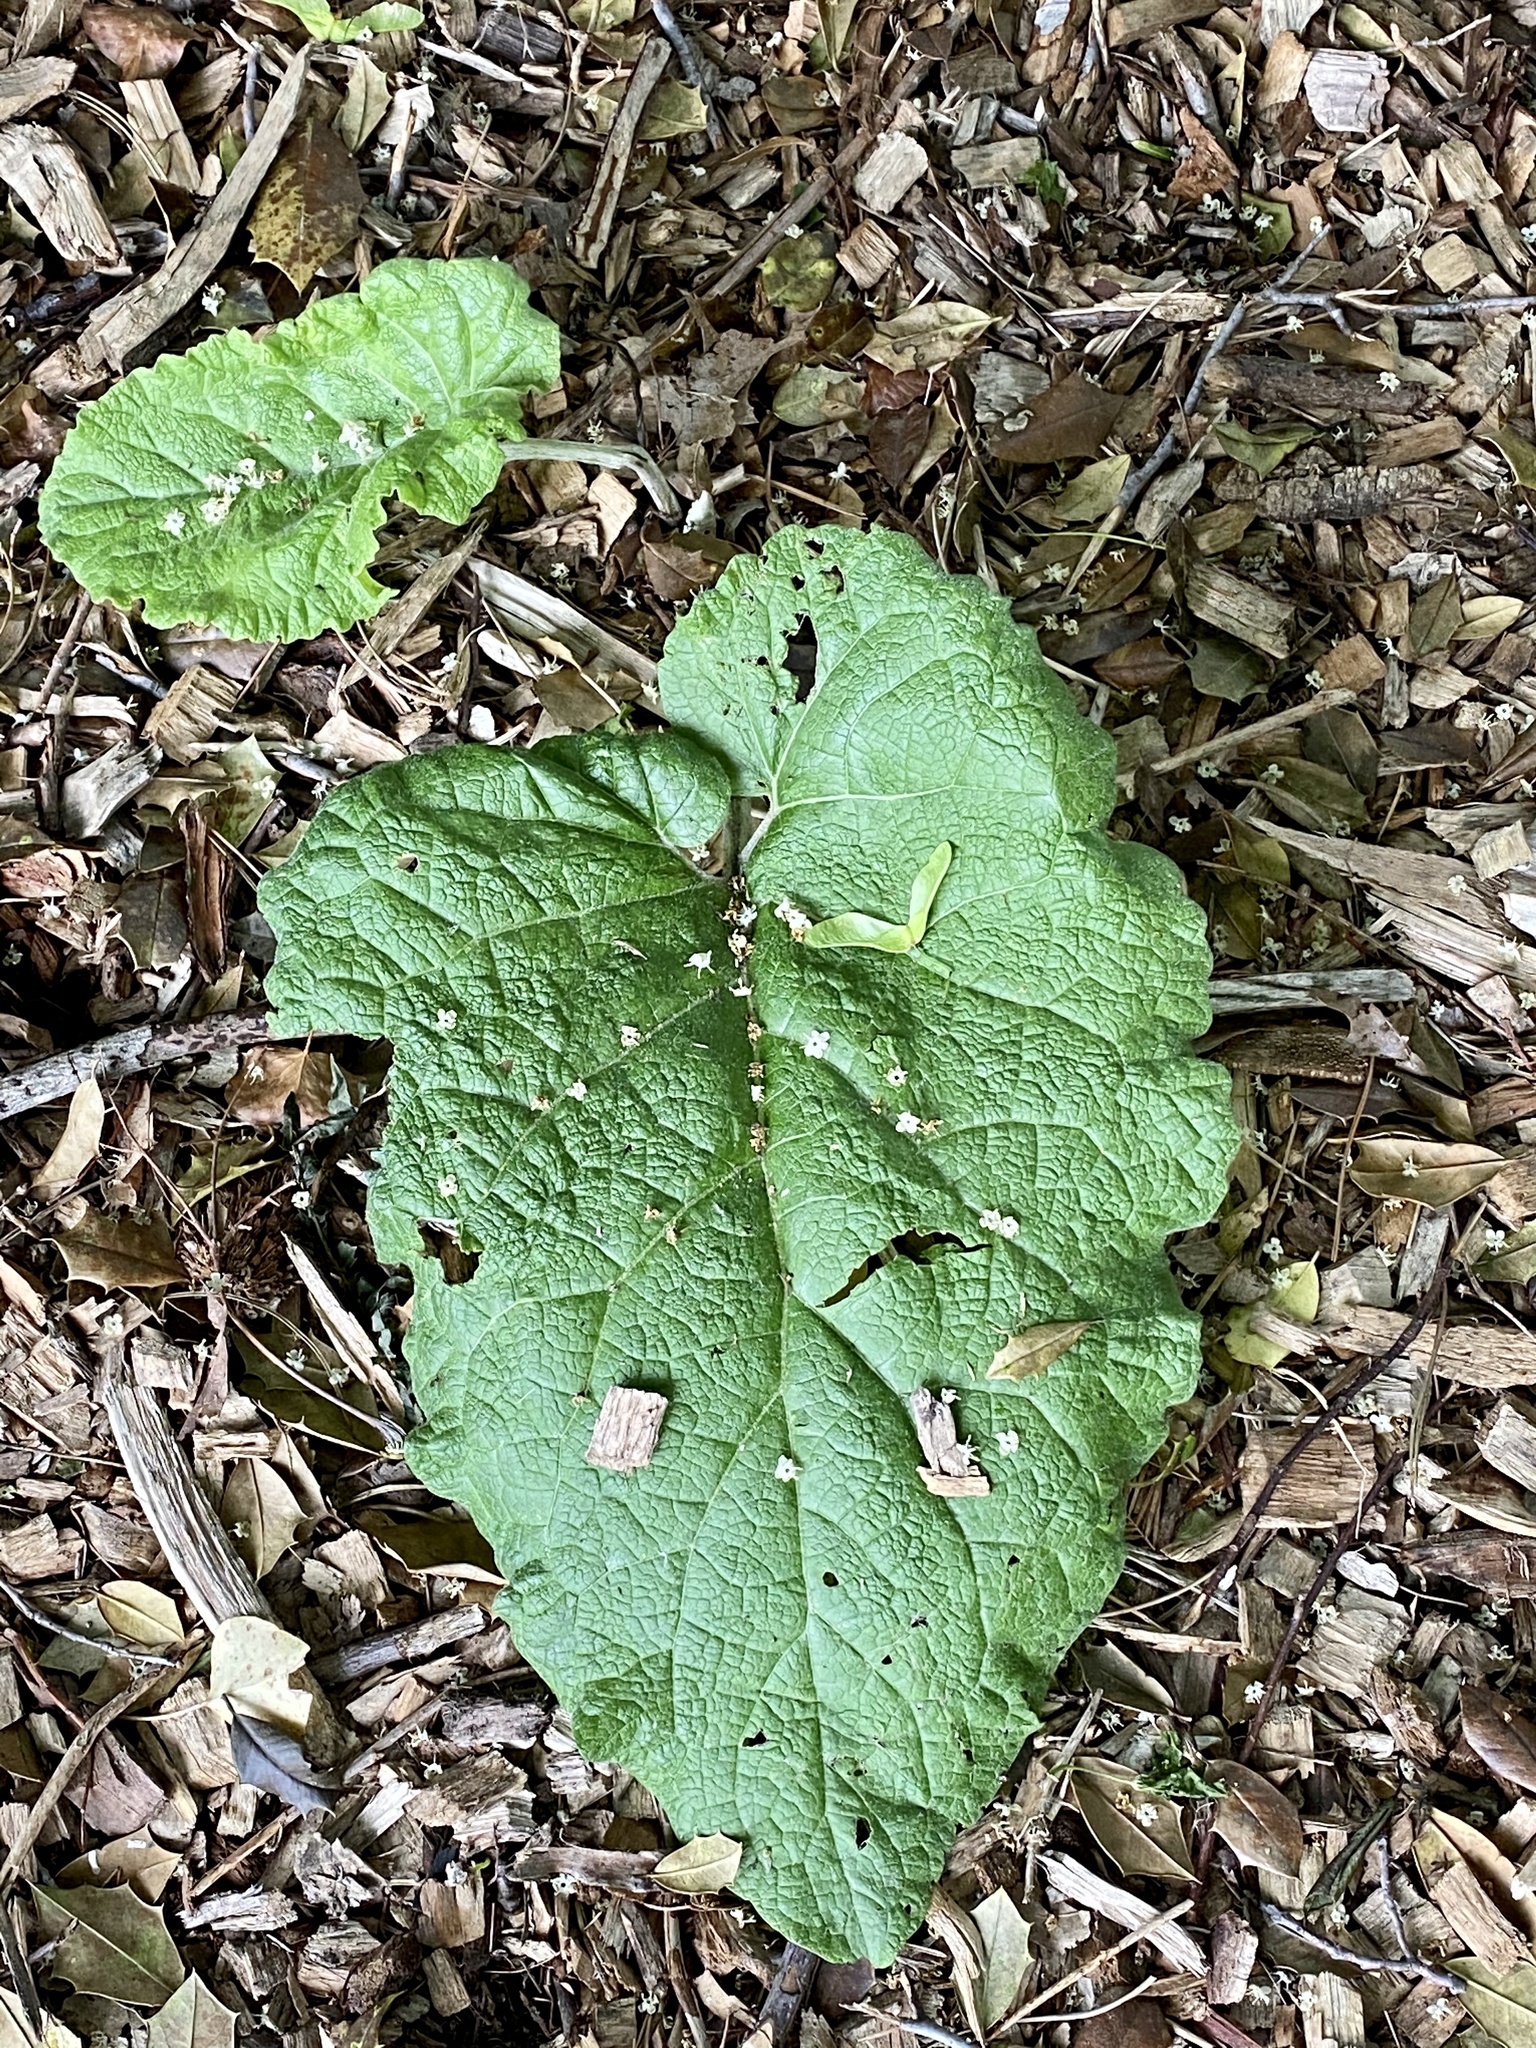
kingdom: Plantae
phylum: Tracheophyta
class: Magnoliopsida
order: Asterales
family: Asteraceae
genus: Arctium
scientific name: Arctium
